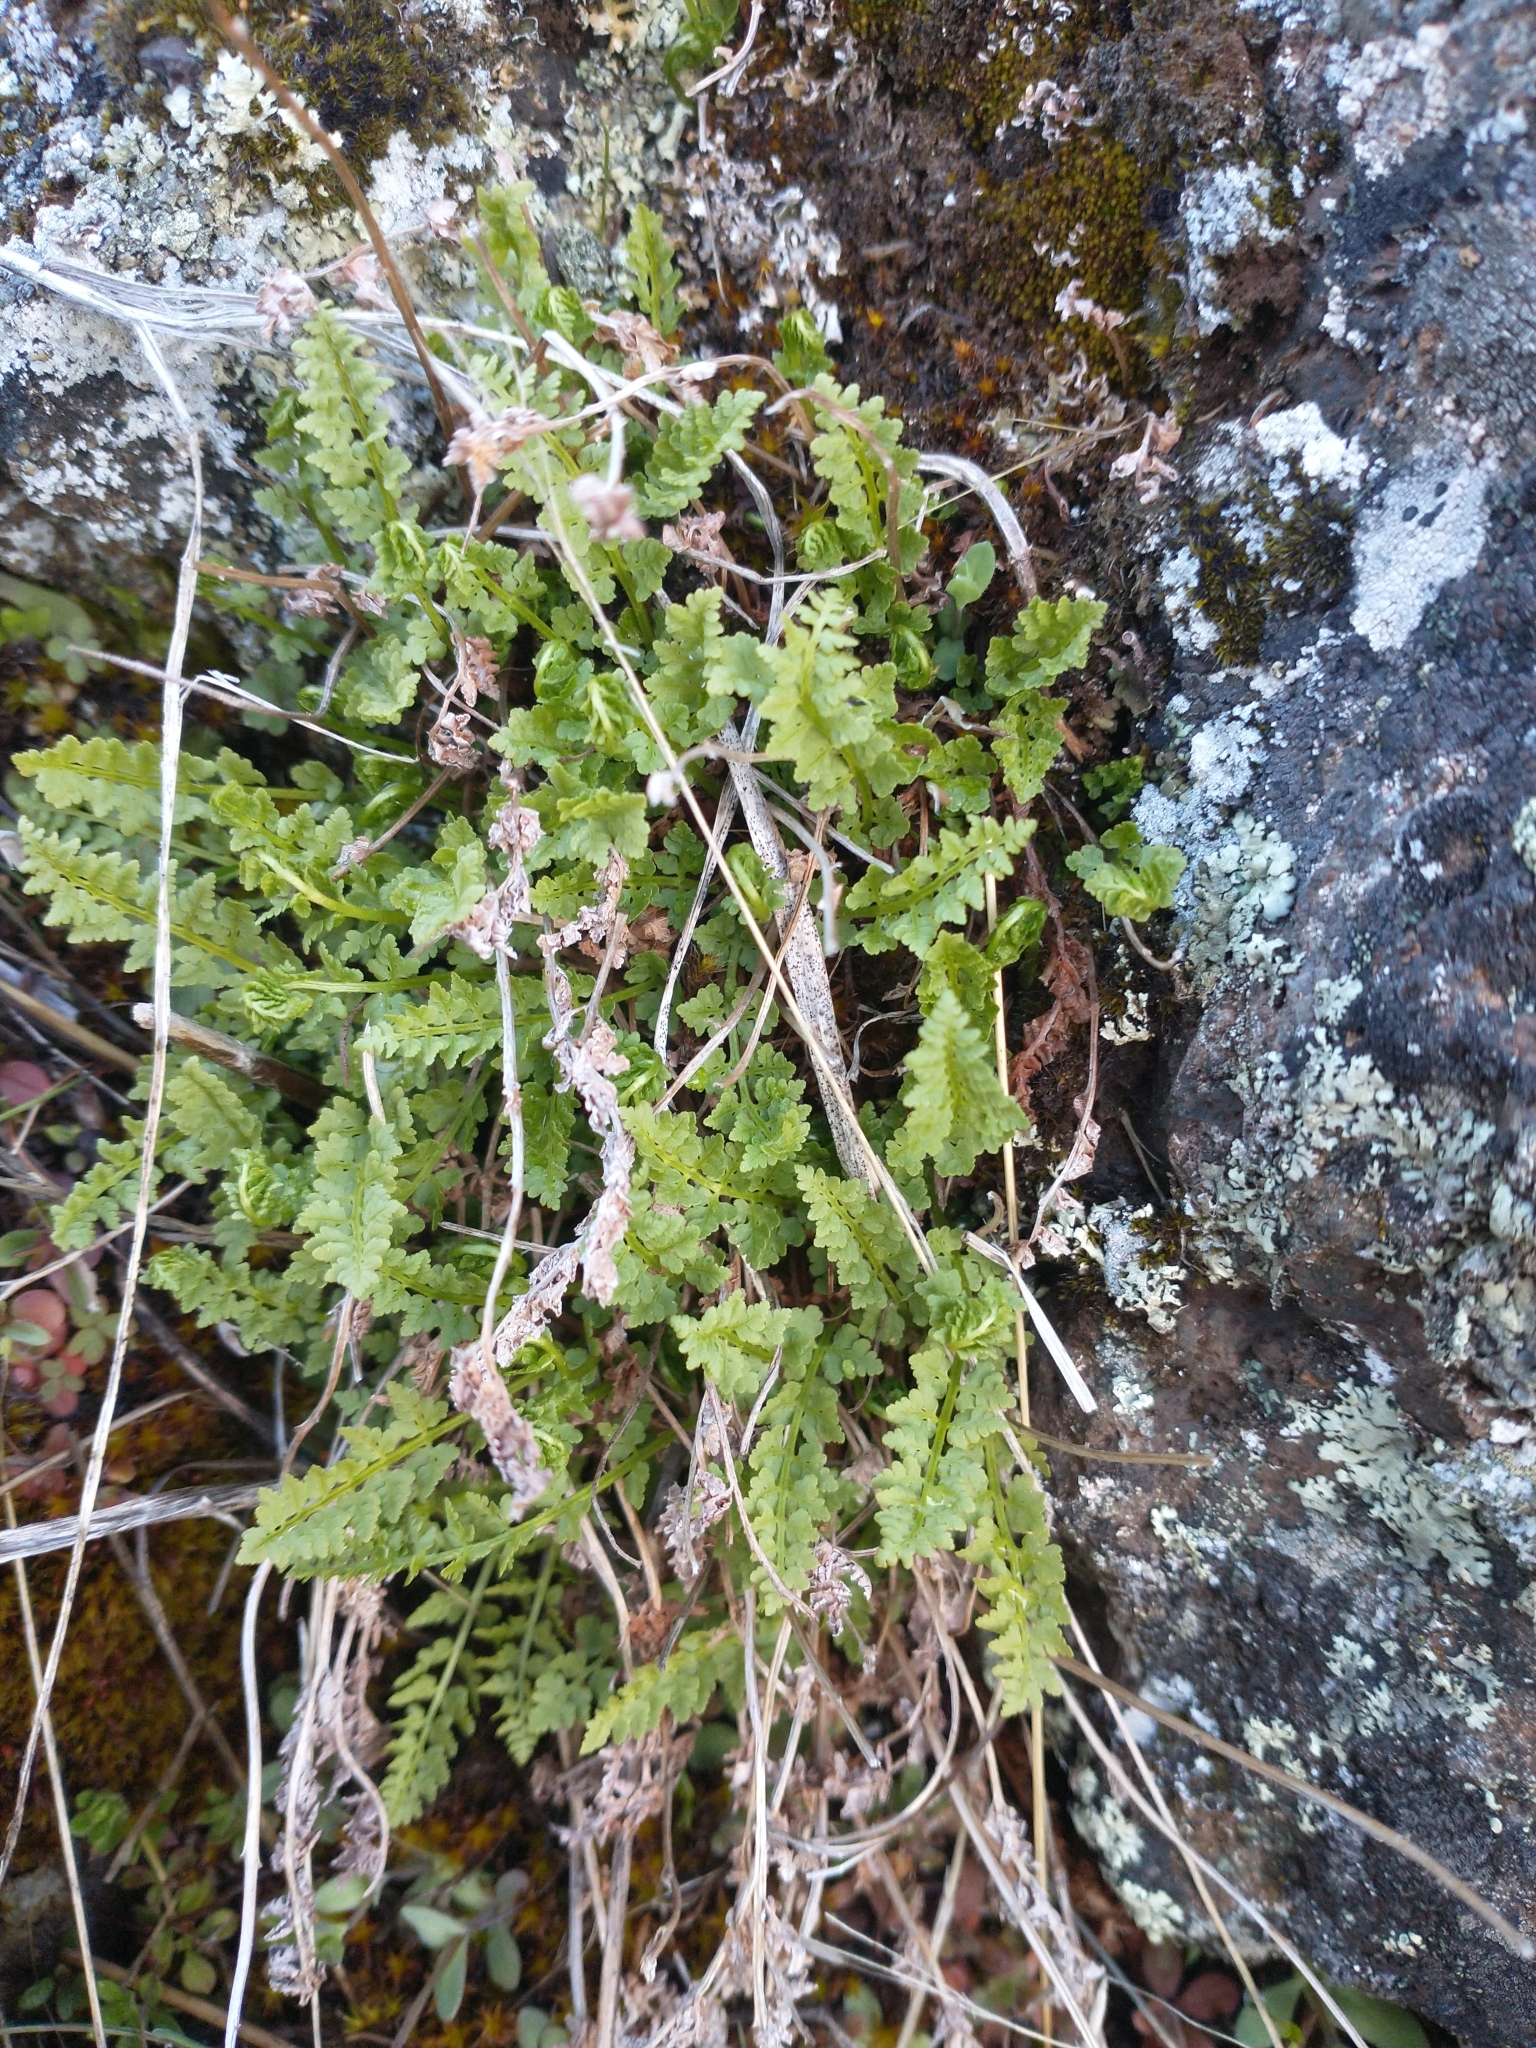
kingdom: Plantae
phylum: Tracheophyta
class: Polypodiopsida
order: Polypodiales
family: Woodsiaceae
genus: Physematium
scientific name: Physematium oreganum
